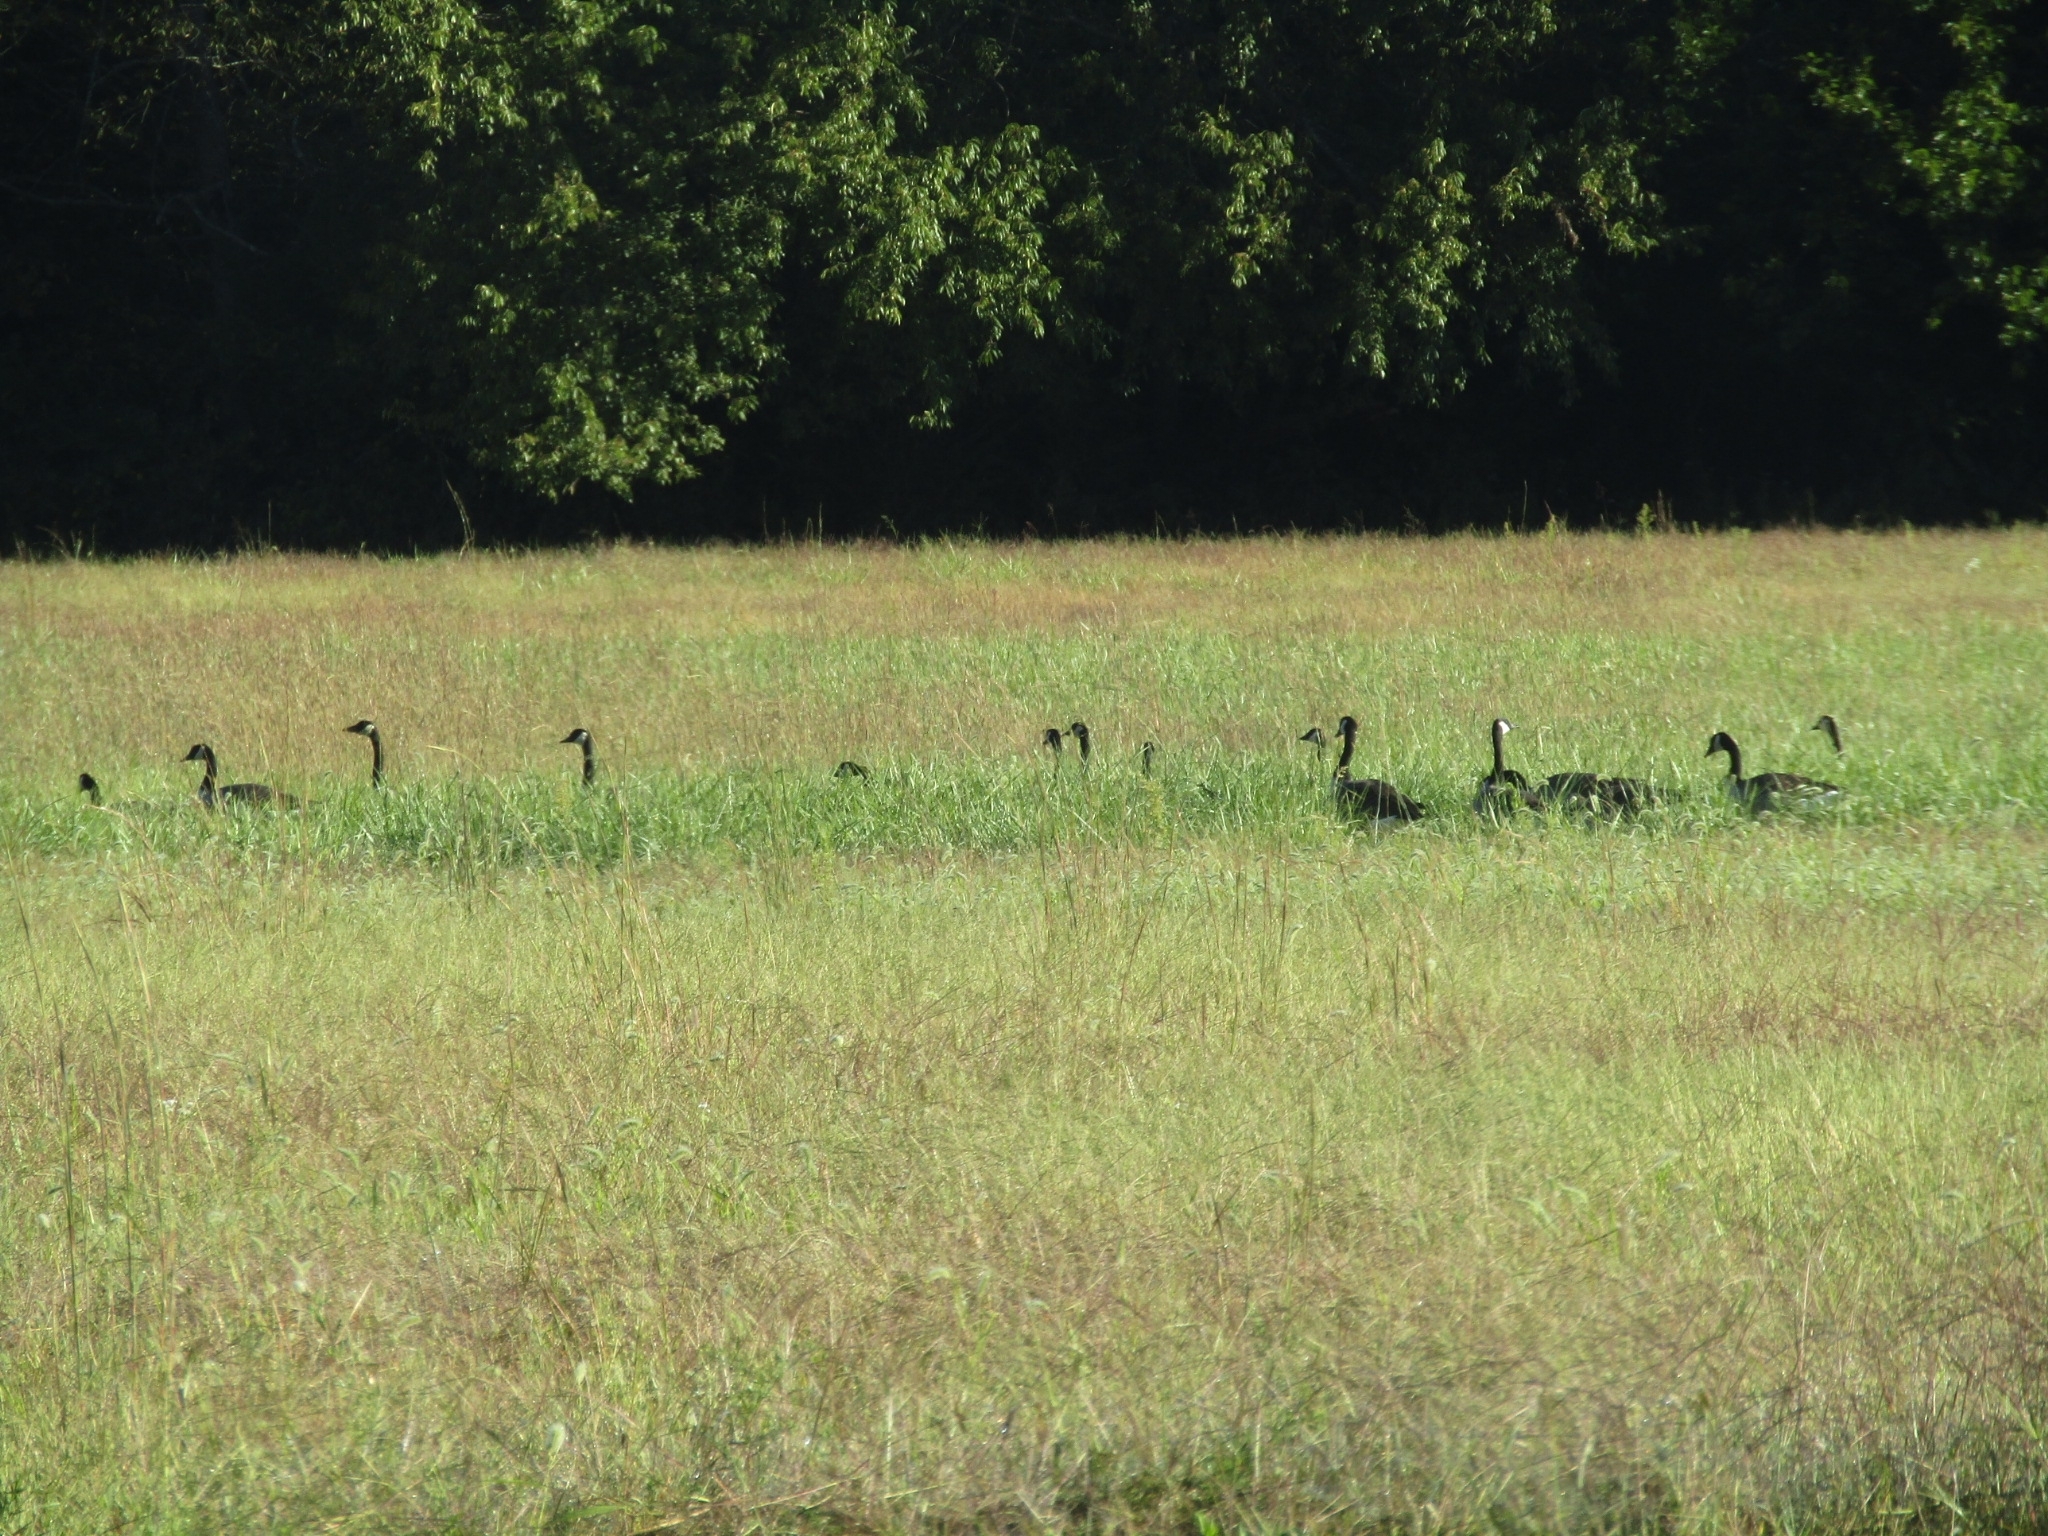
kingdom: Animalia
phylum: Chordata
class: Aves
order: Anseriformes
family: Anatidae
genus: Branta
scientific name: Branta canadensis
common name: Canada goose
